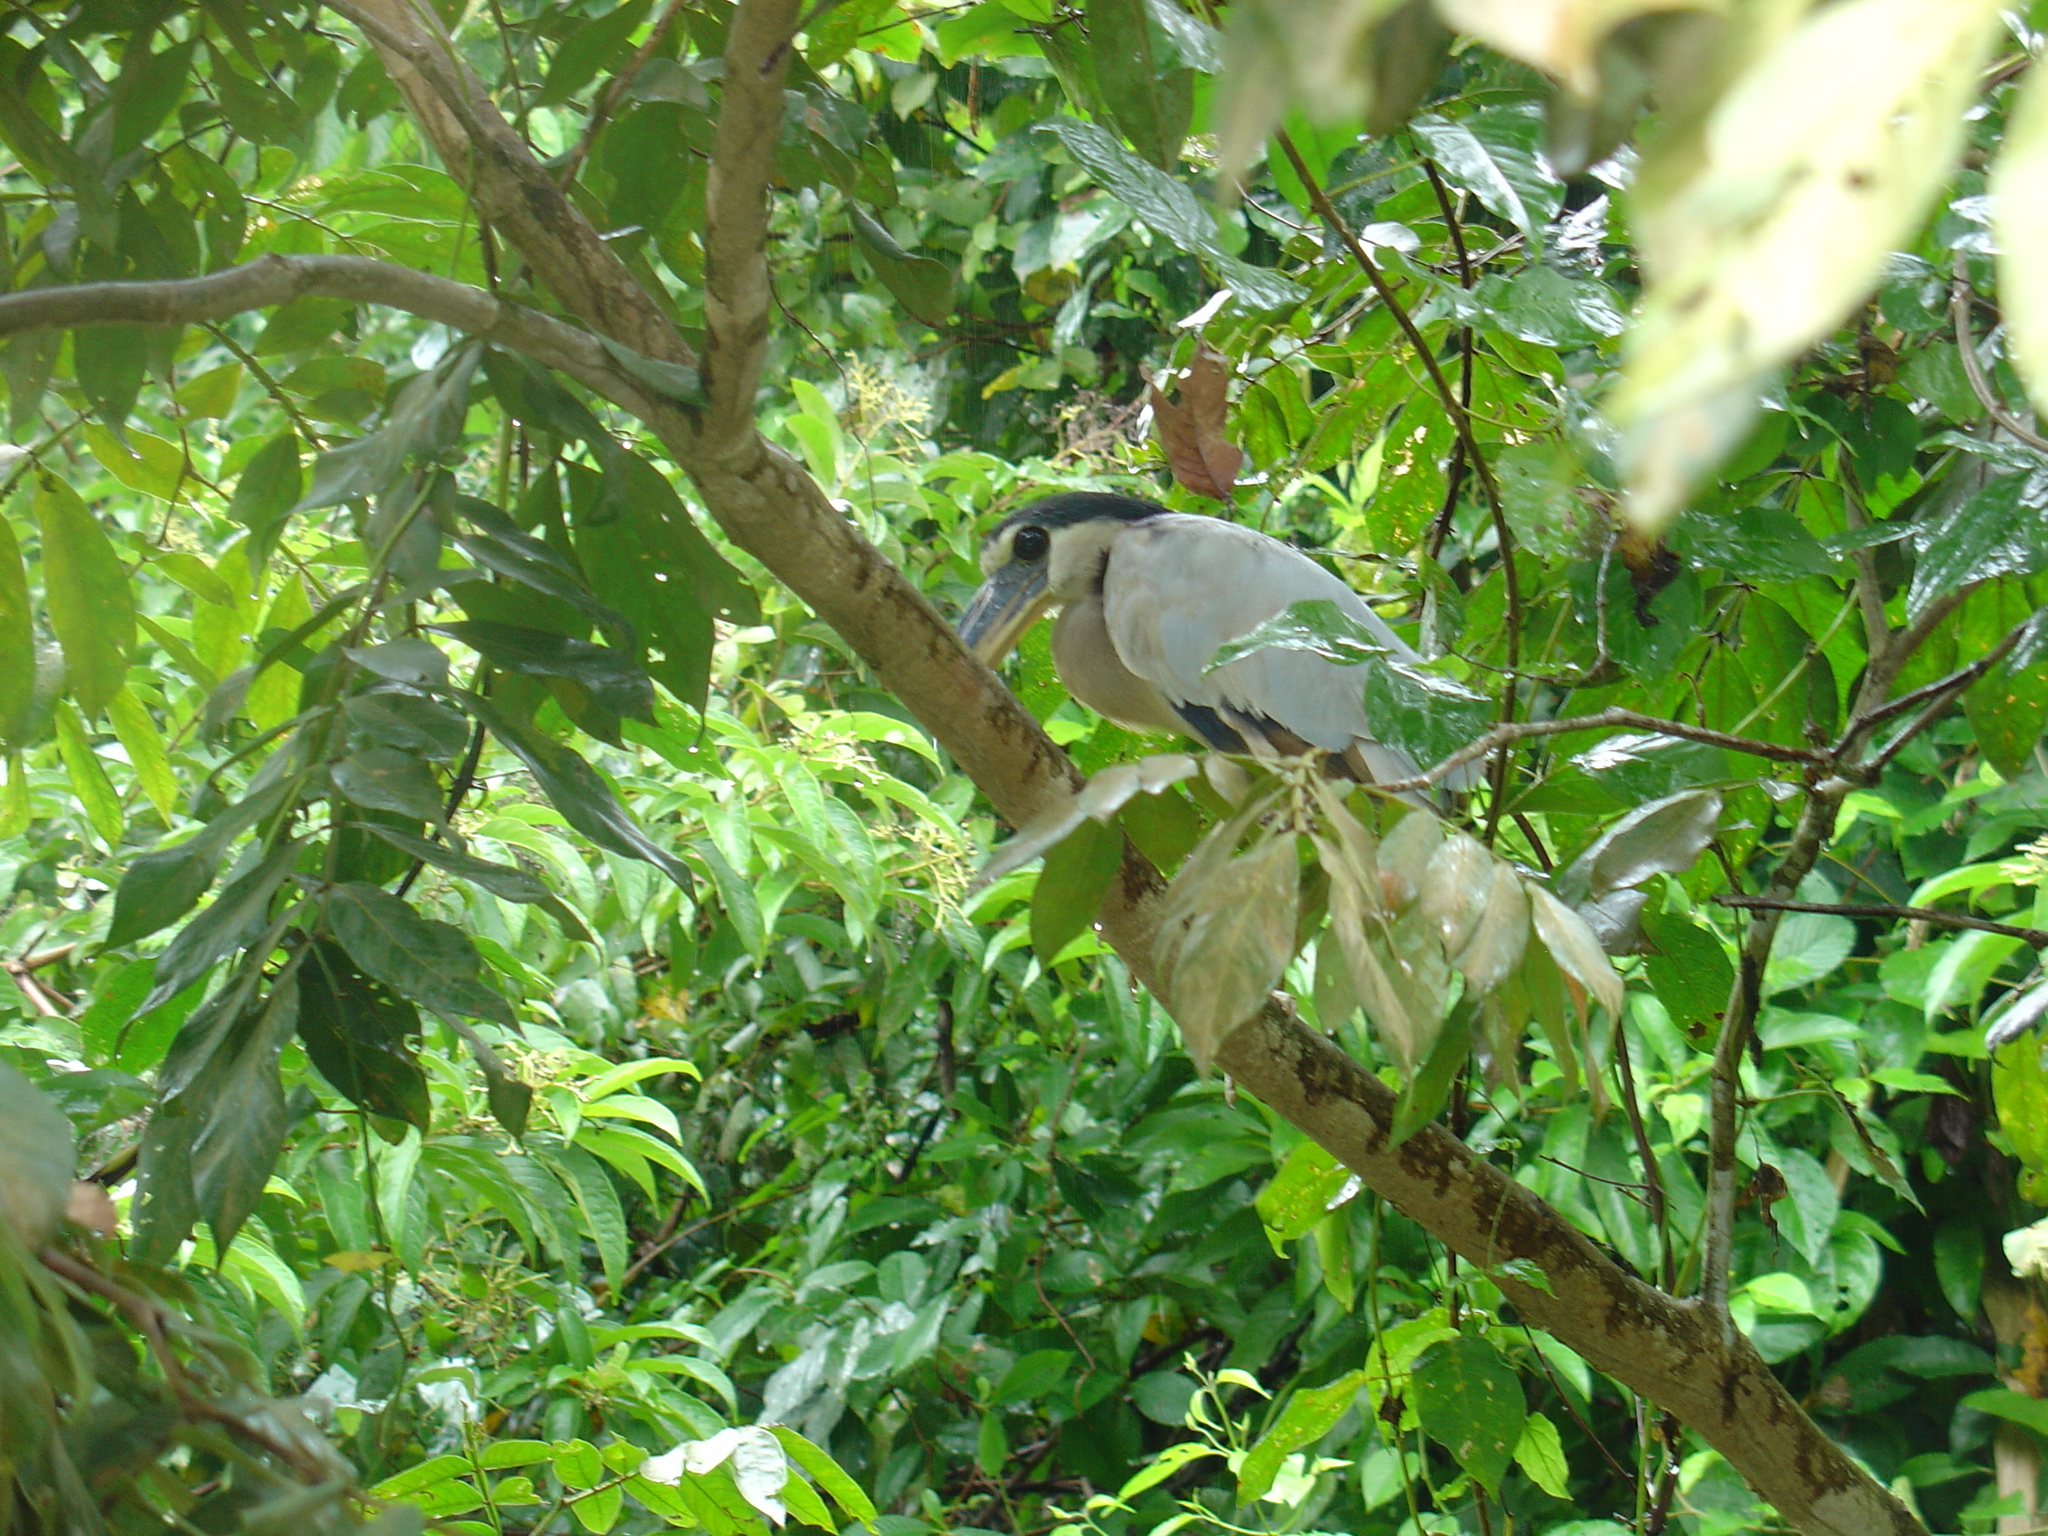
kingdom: Animalia
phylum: Chordata
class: Aves
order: Pelecaniformes
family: Ardeidae
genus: Cochlearius
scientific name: Cochlearius cochlearius
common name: Boat-billed heron
